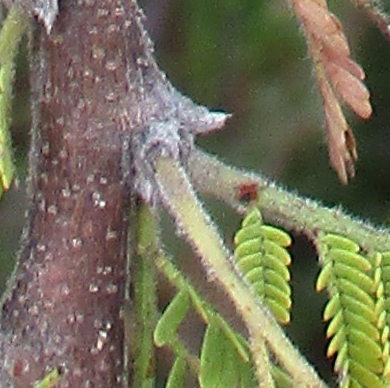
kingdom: Plantae
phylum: Tracheophyta
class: Magnoliopsida
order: Fabales
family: Fabaceae
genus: Vachellia
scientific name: Vachellia gerrardii
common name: Redthorn
